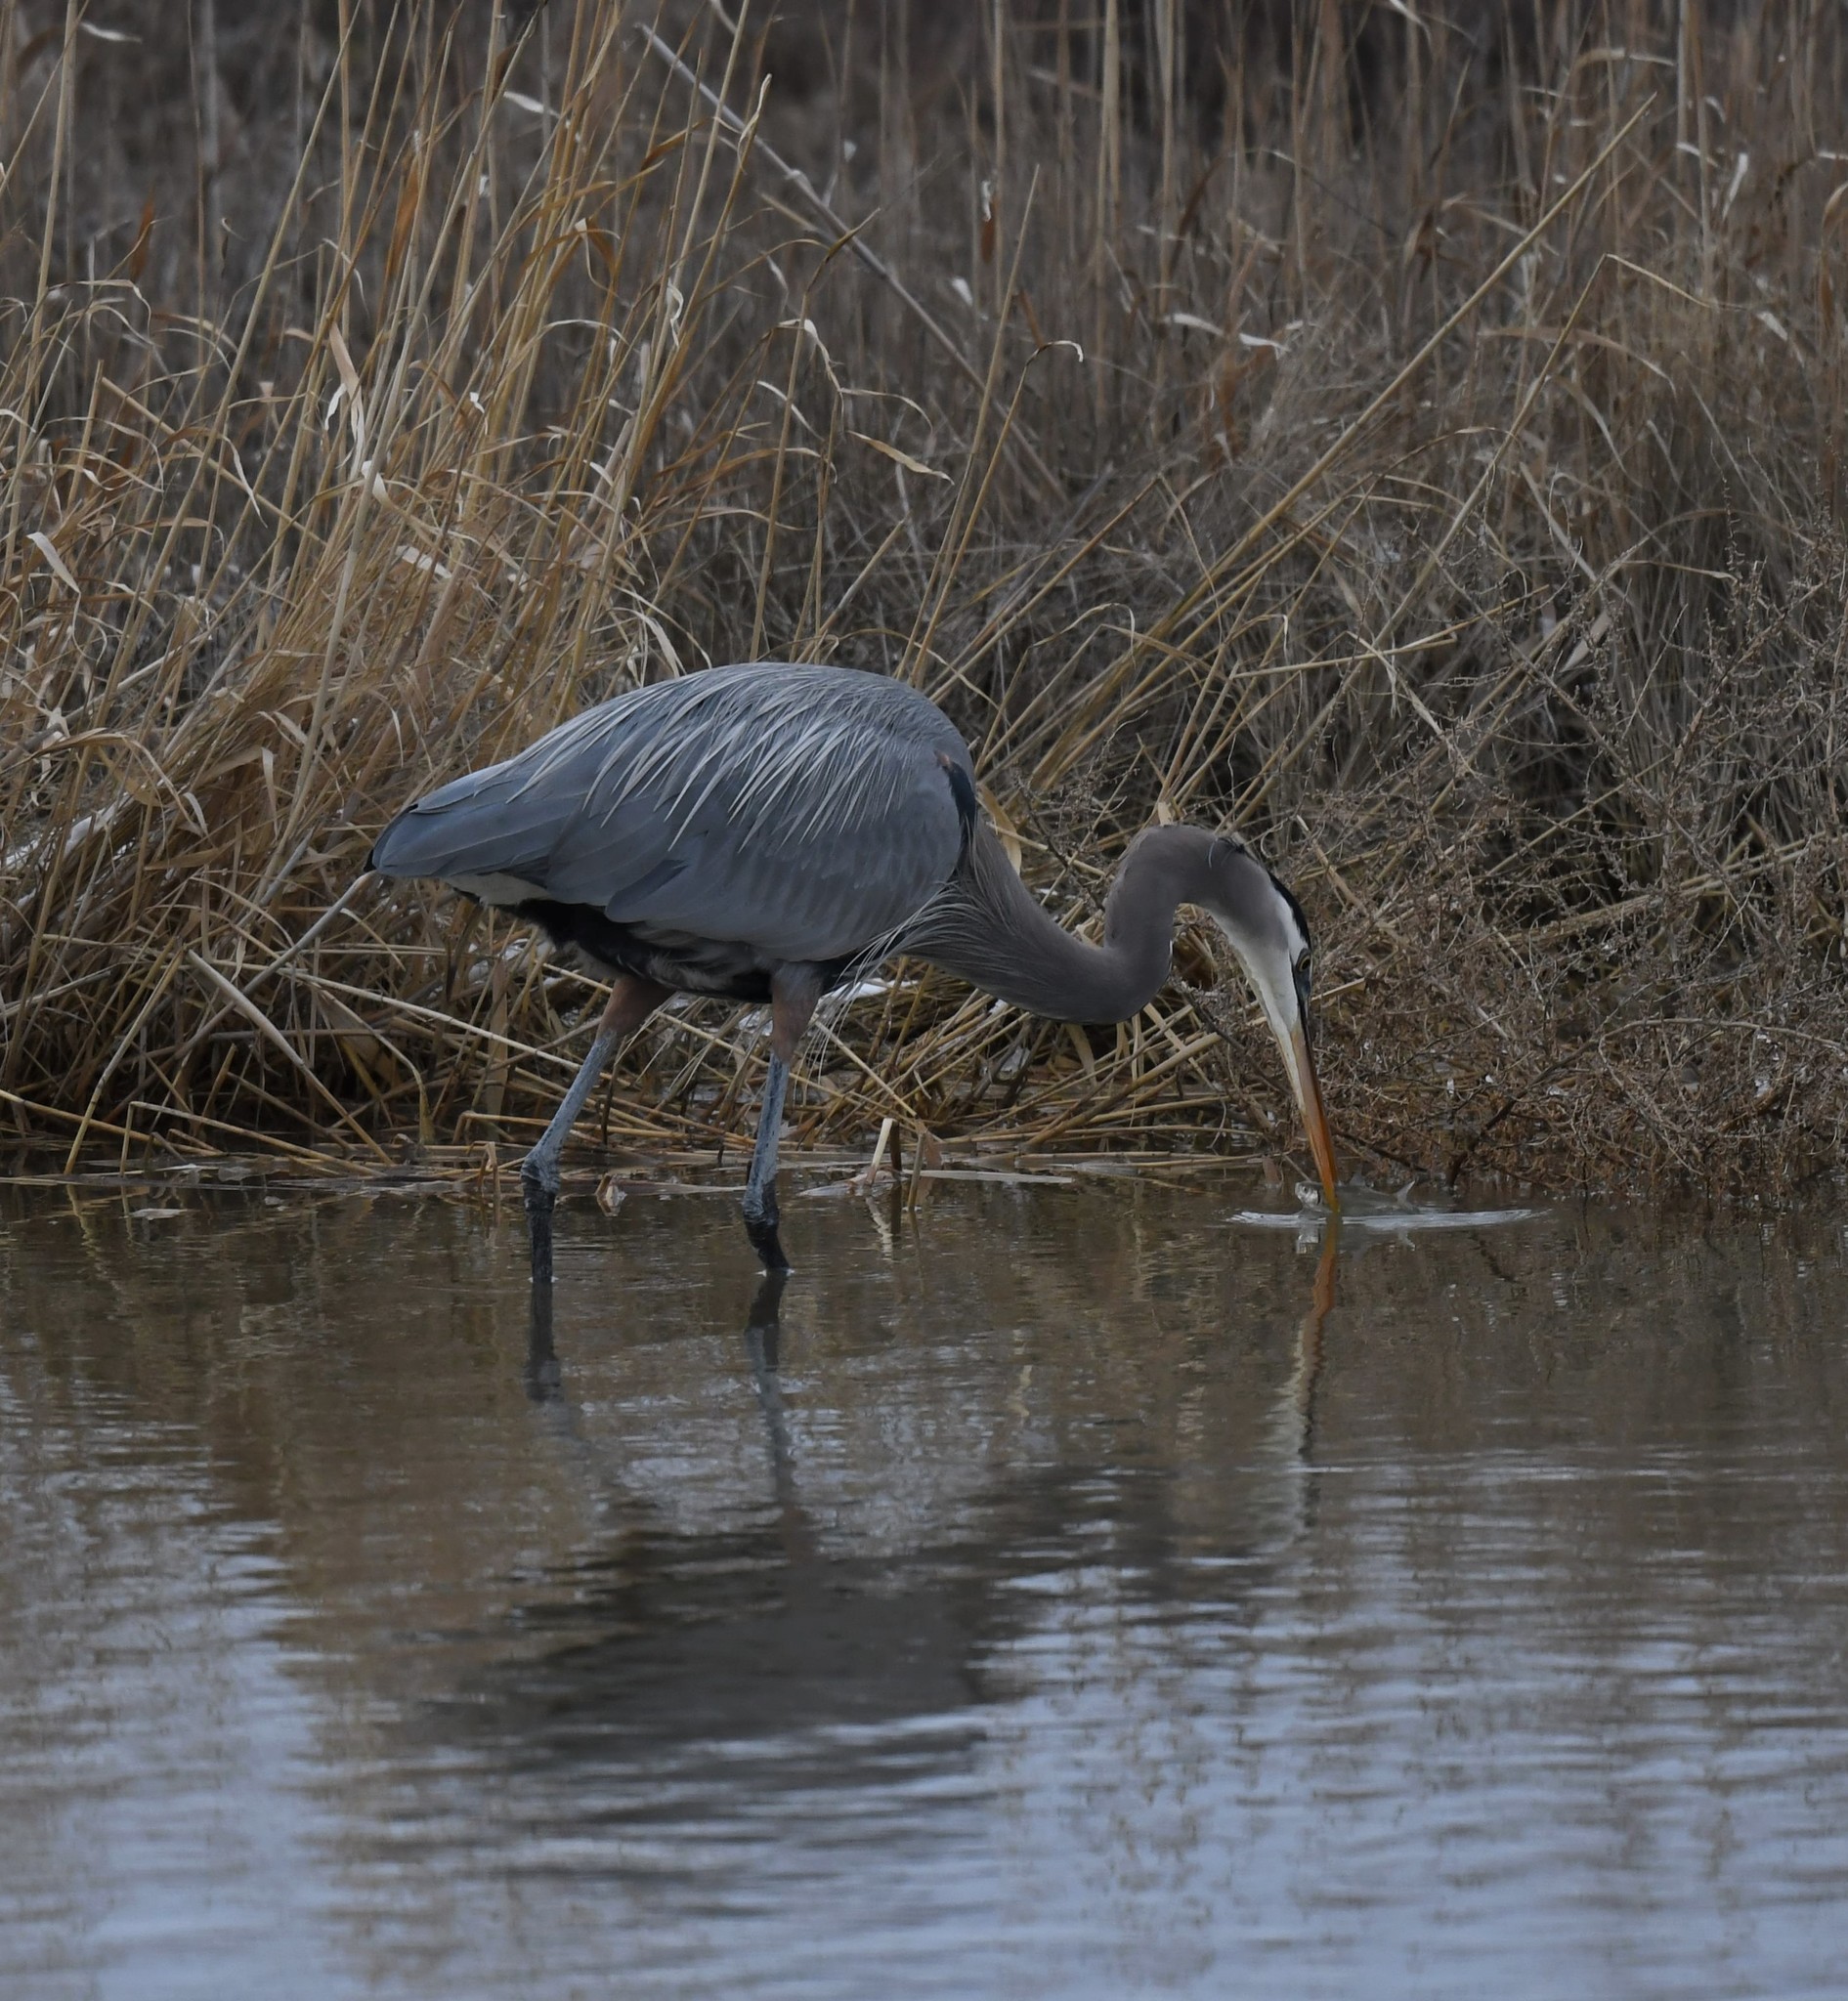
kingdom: Animalia
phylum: Chordata
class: Aves
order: Pelecaniformes
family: Ardeidae
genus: Ardea
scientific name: Ardea herodias
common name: Great blue heron
